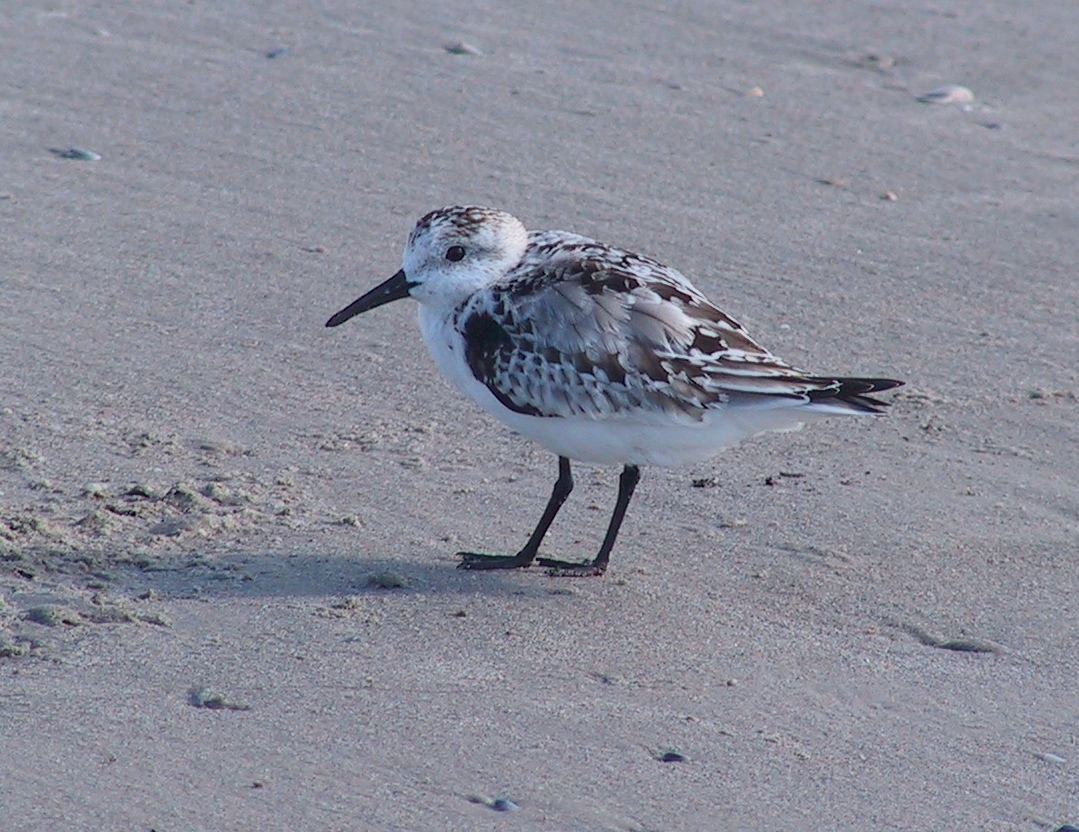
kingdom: Animalia
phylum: Chordata
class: Aves
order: Charadriiformes
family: Scolopacidae
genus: Calidris
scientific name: Calidris alba
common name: Sanderling
